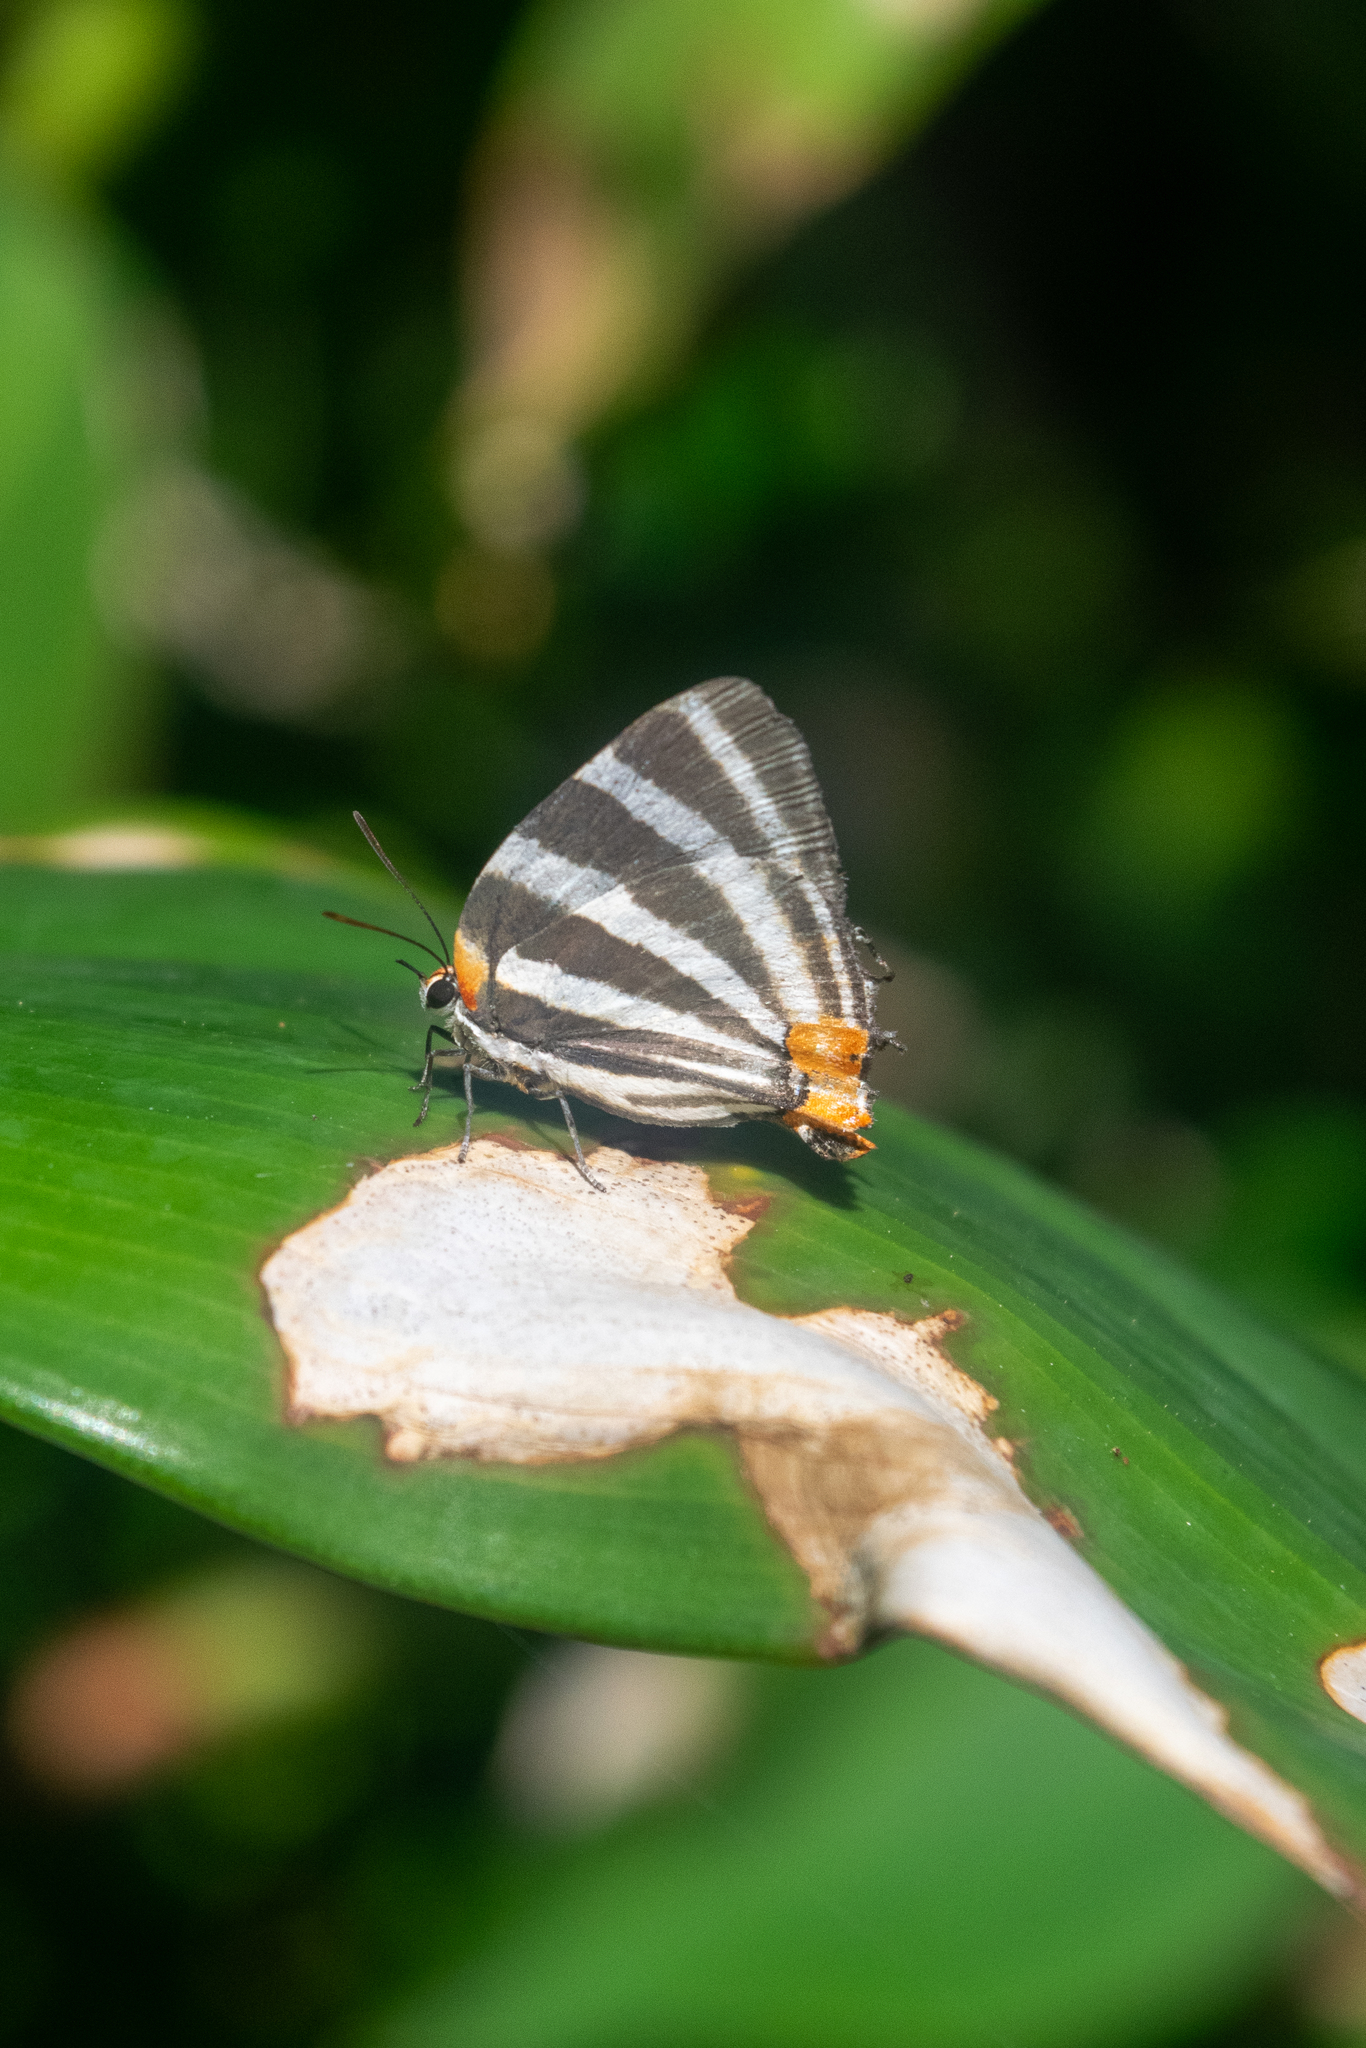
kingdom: Animalia
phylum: Arthropoda
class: Insecta
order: Lepidoptera
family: Lycaenidae
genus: Thecla
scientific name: Thecla bathildis
